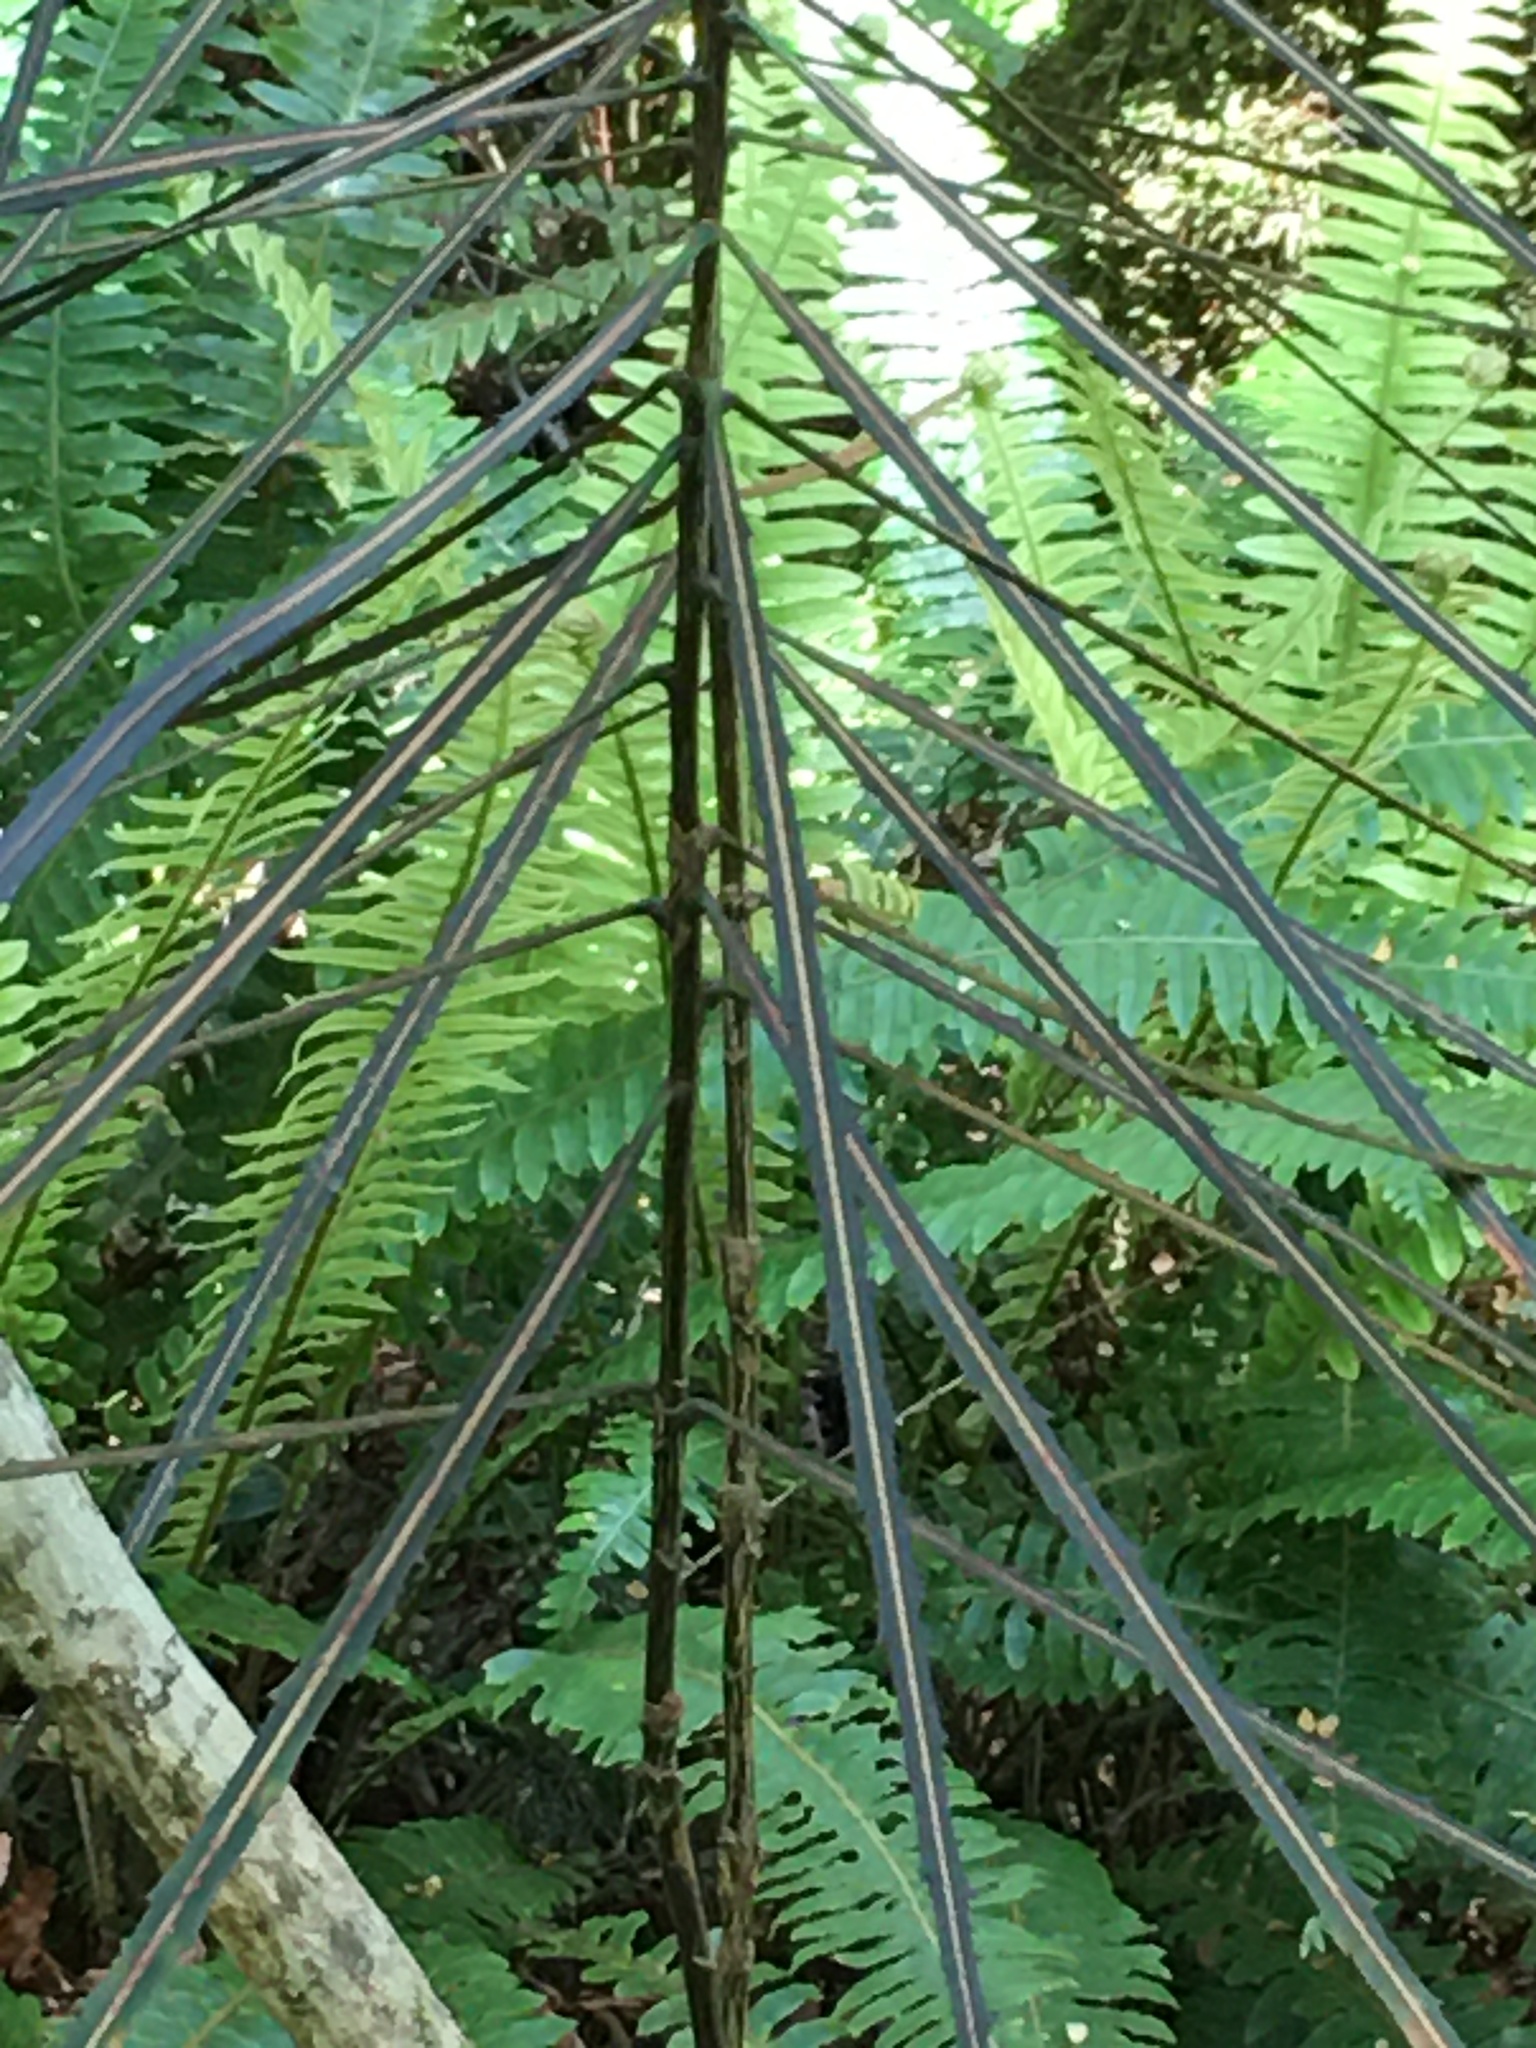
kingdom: Plantae
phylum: Tracheophyta
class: Magnoliopsida
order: Apiales
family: Araliaceae
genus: Pseudopanax
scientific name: Pseudopanax crassifolius
